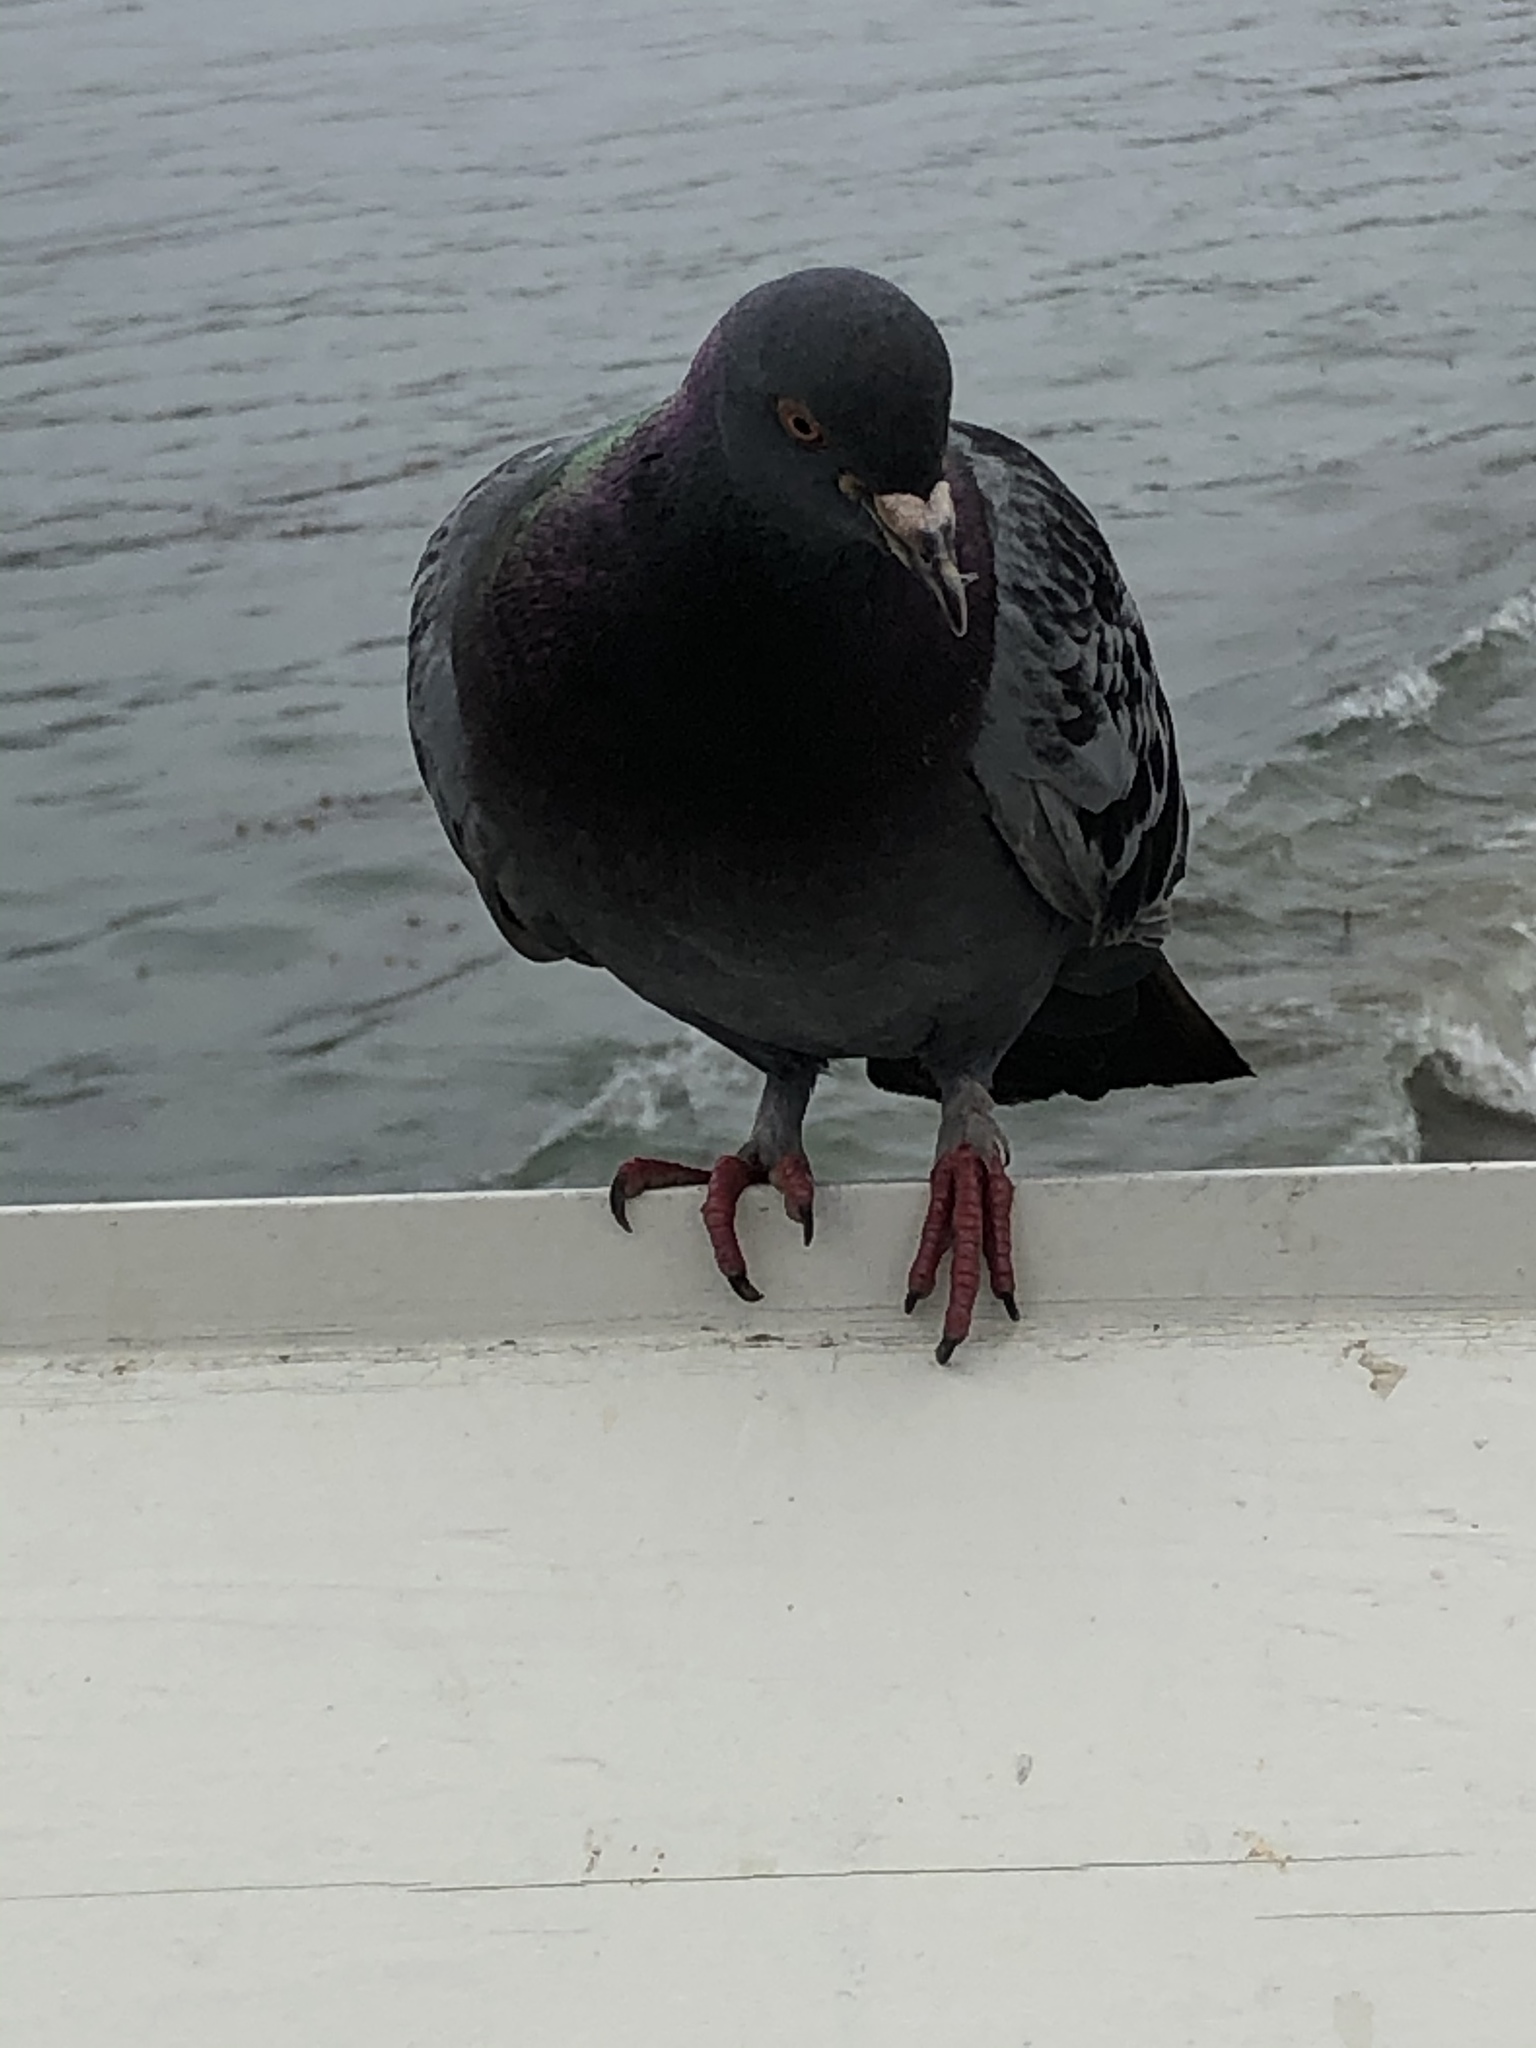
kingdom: Animalia
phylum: Chordata
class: Aves
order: Columbiformes
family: Columbidae
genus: Columba
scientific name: Columba livia
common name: Rock pigeon
